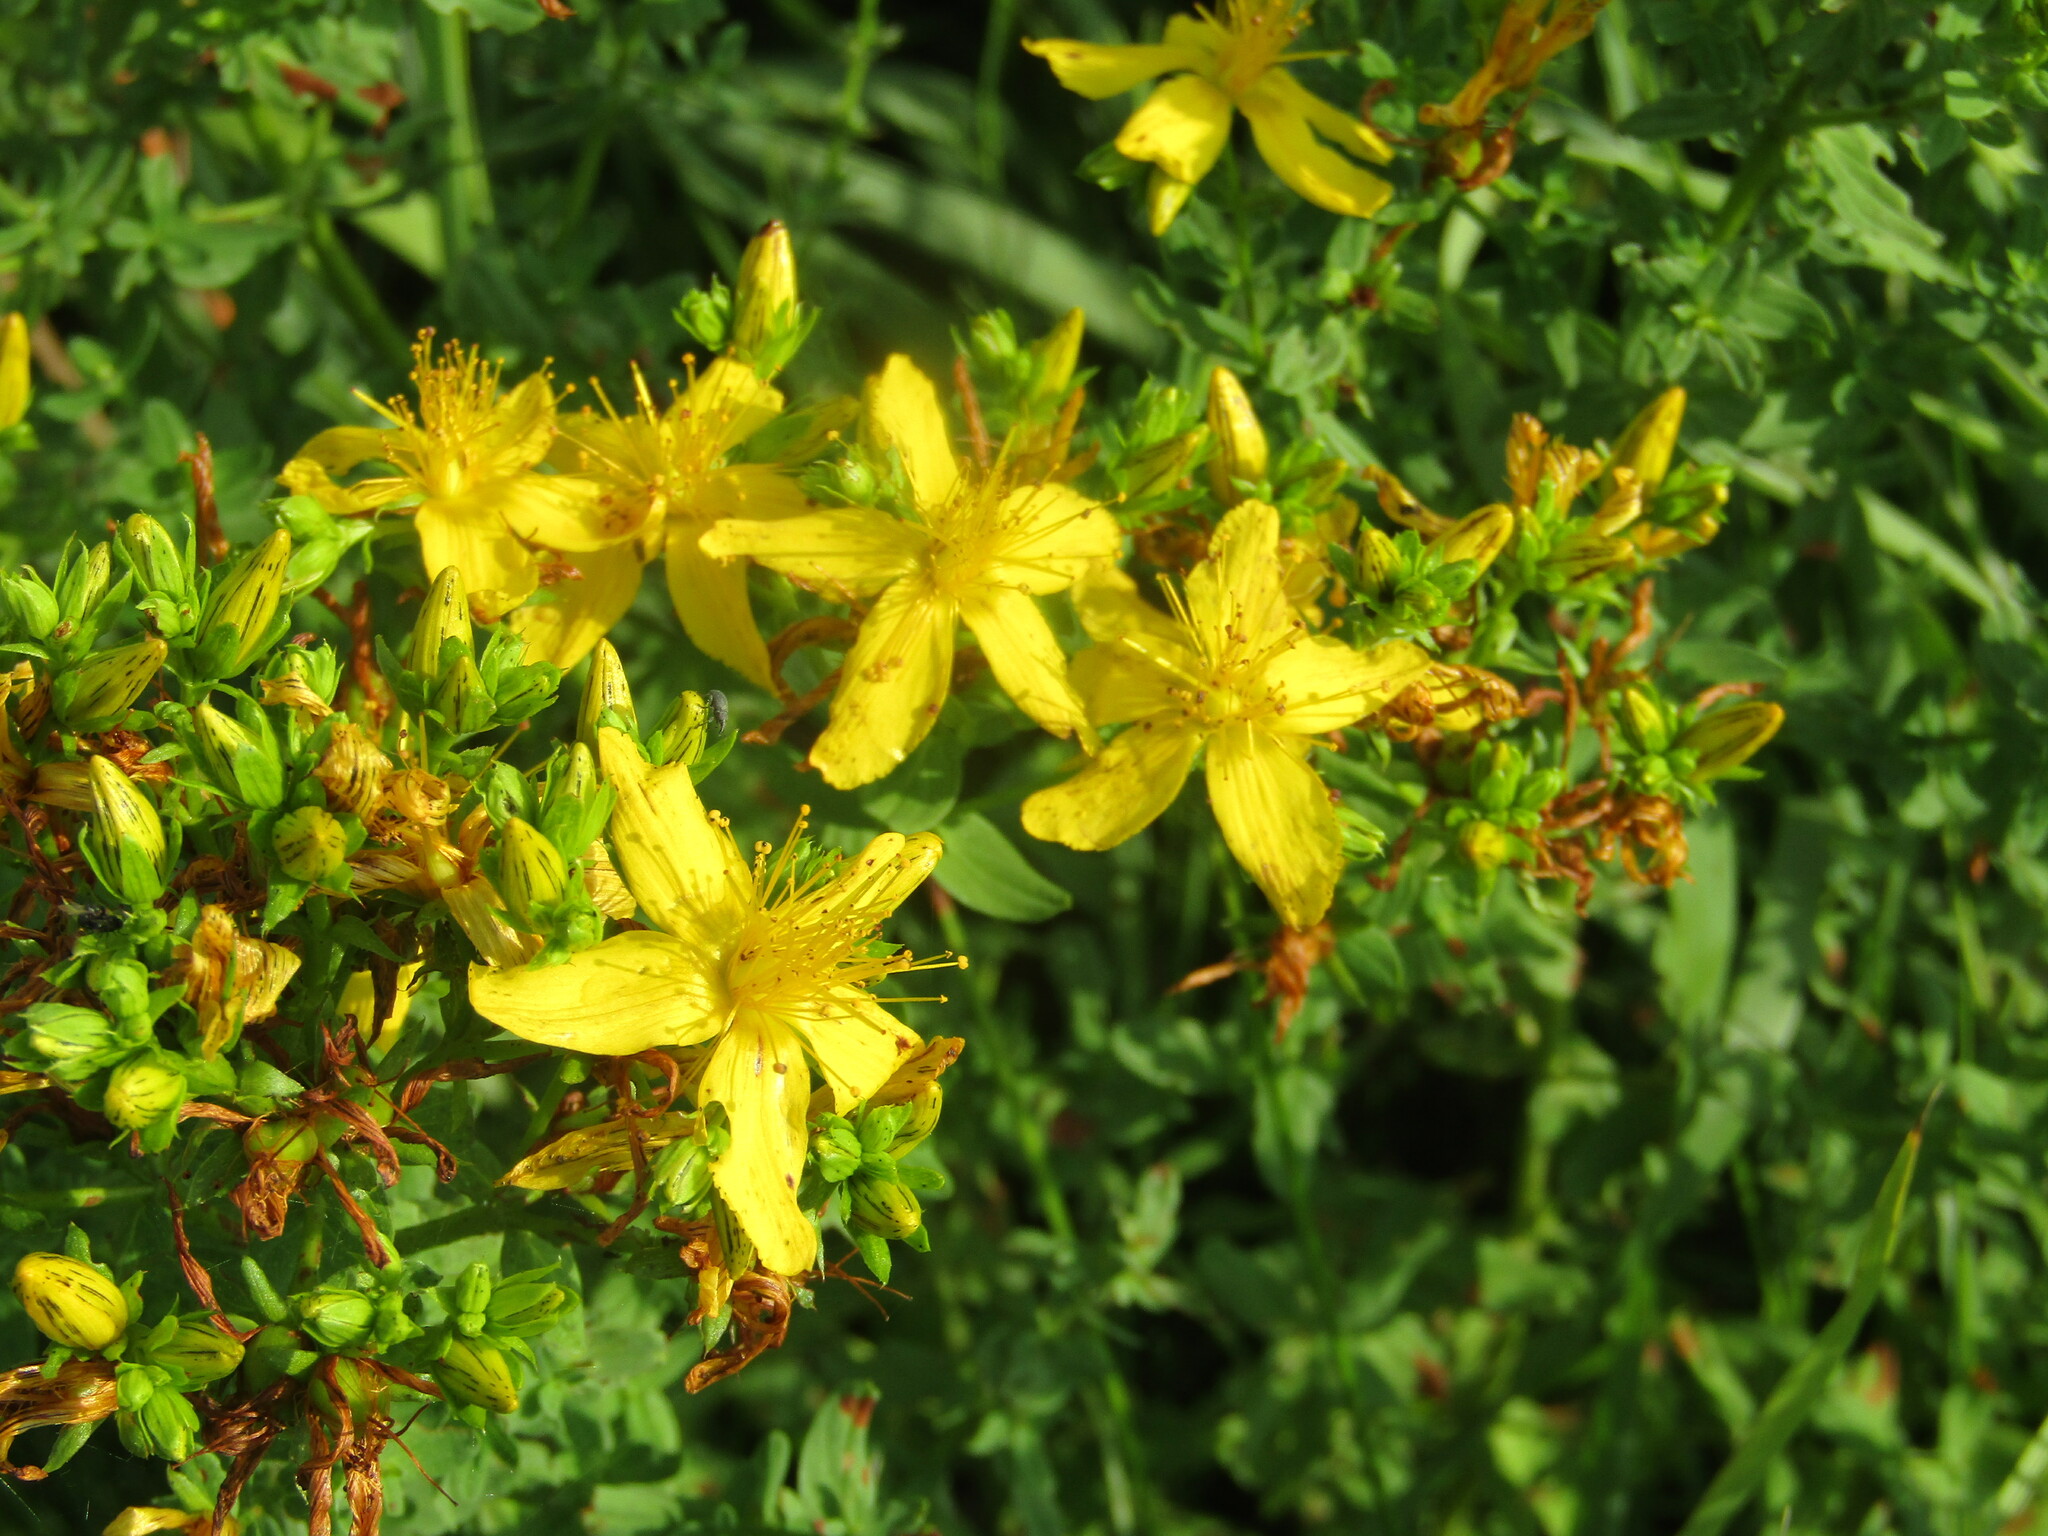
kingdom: Plantae
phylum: Tracheophyta
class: Magnoliopsida
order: Malpighiales
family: Hypericaceae
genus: Hypericum
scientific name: Hypericum perforatum
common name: Common st. johnswort
